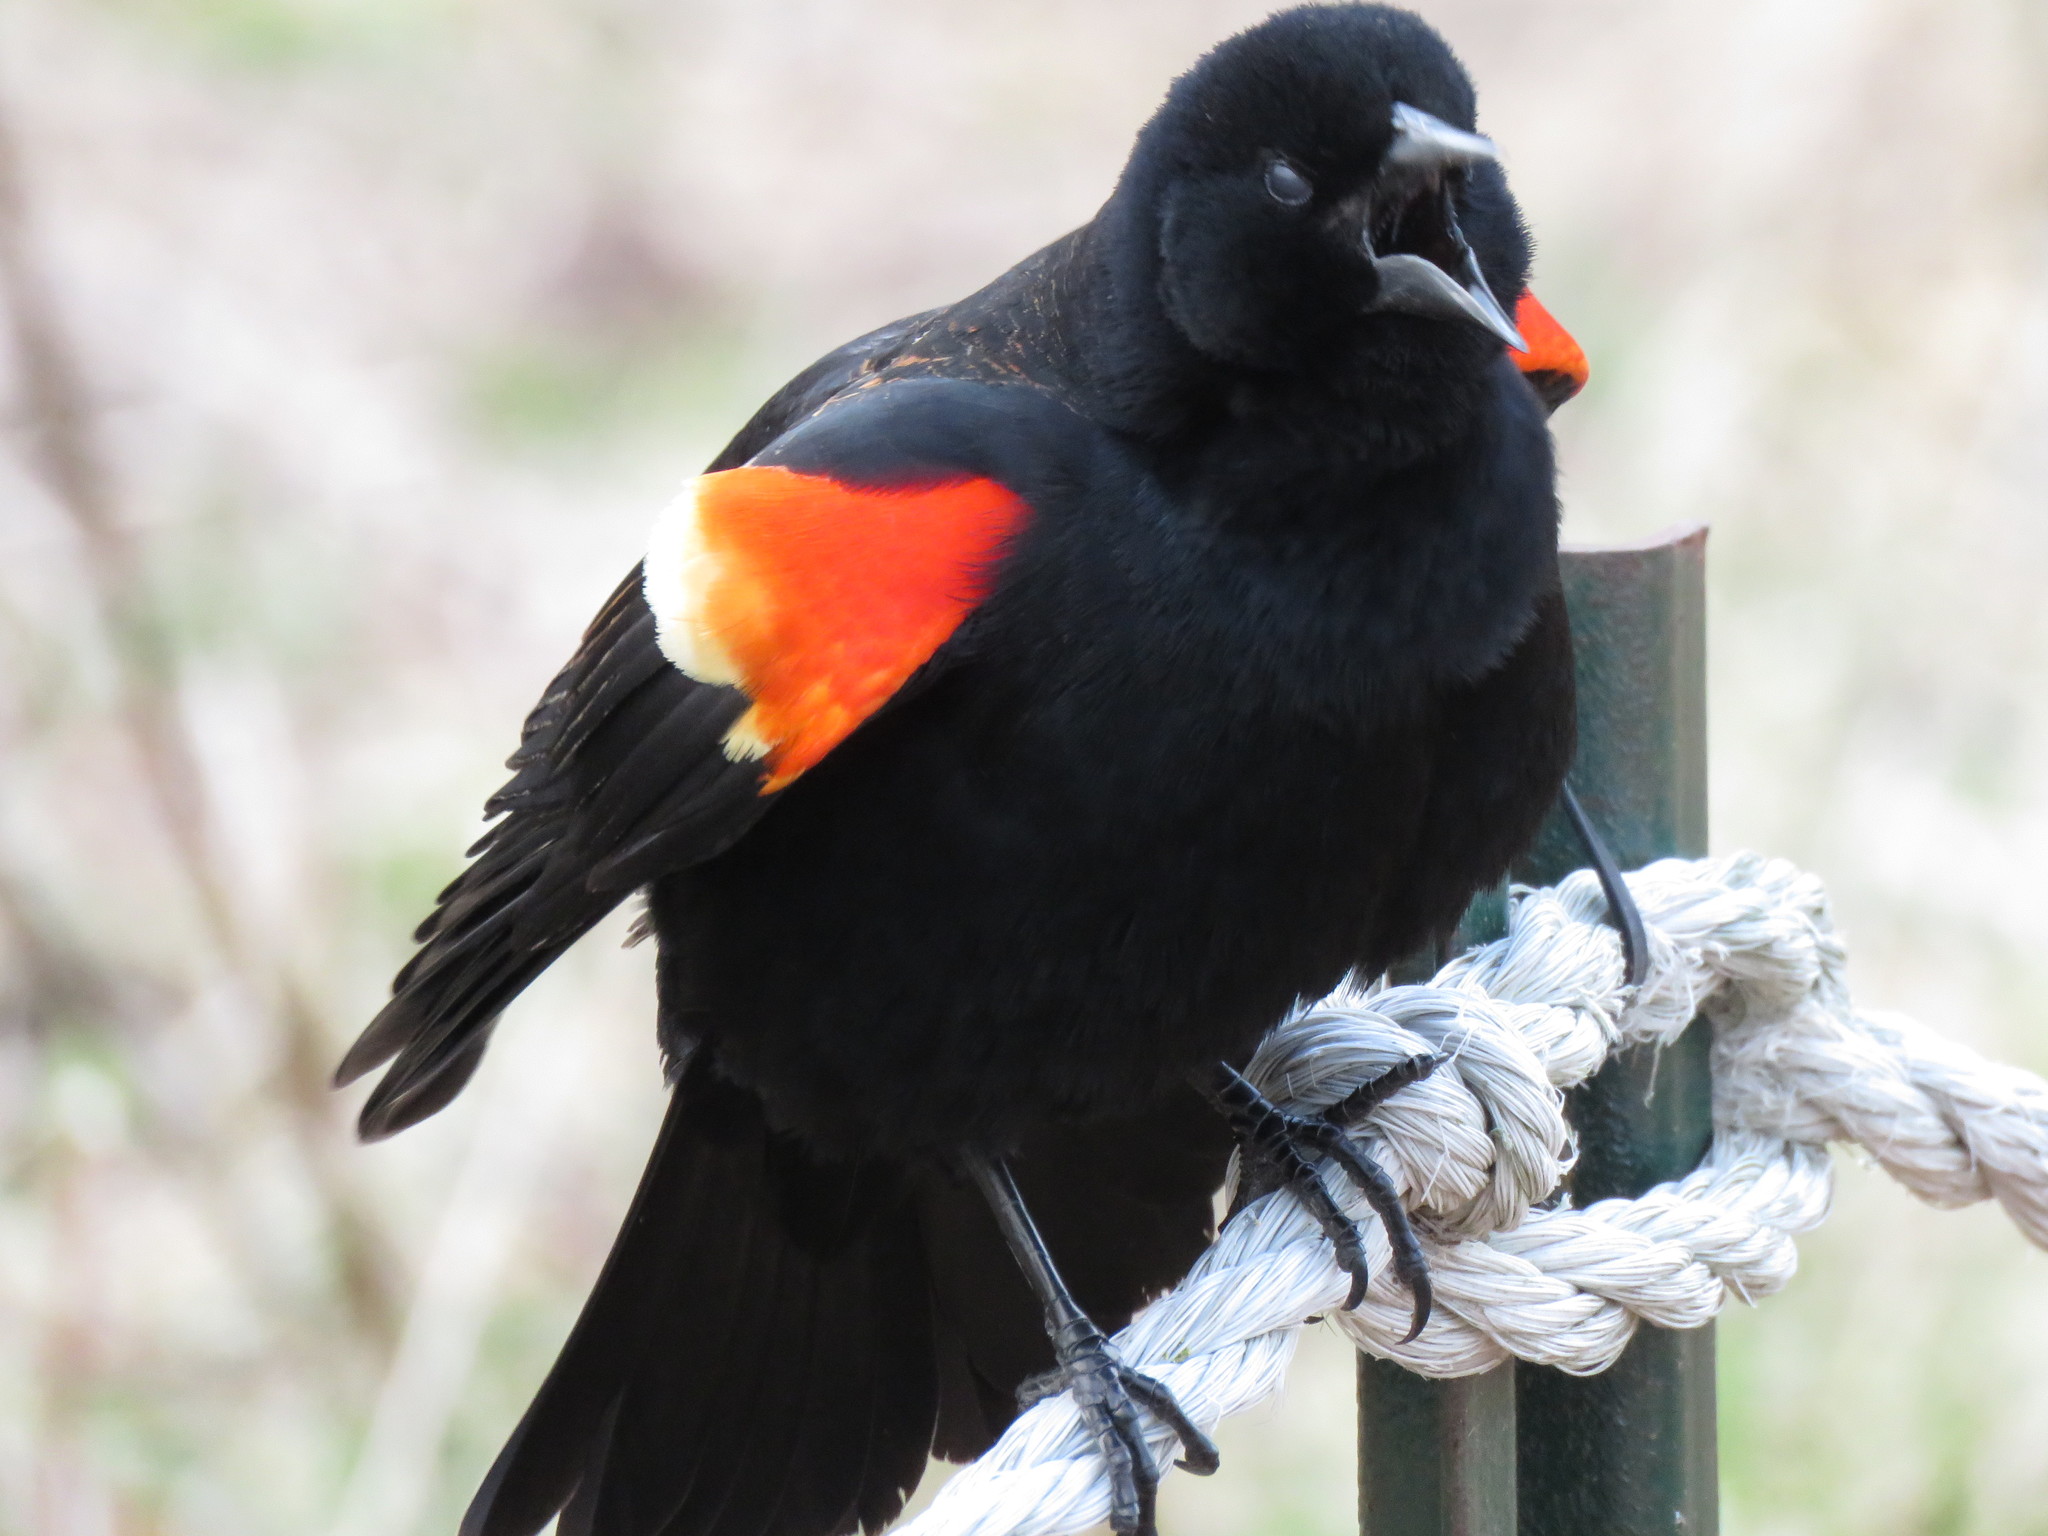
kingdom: Animalia
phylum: Chordata
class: Aves
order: Passeriformes
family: Icteridae
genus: Agelaius
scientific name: Agelaius phoeniceus
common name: Red-winged blackbird
